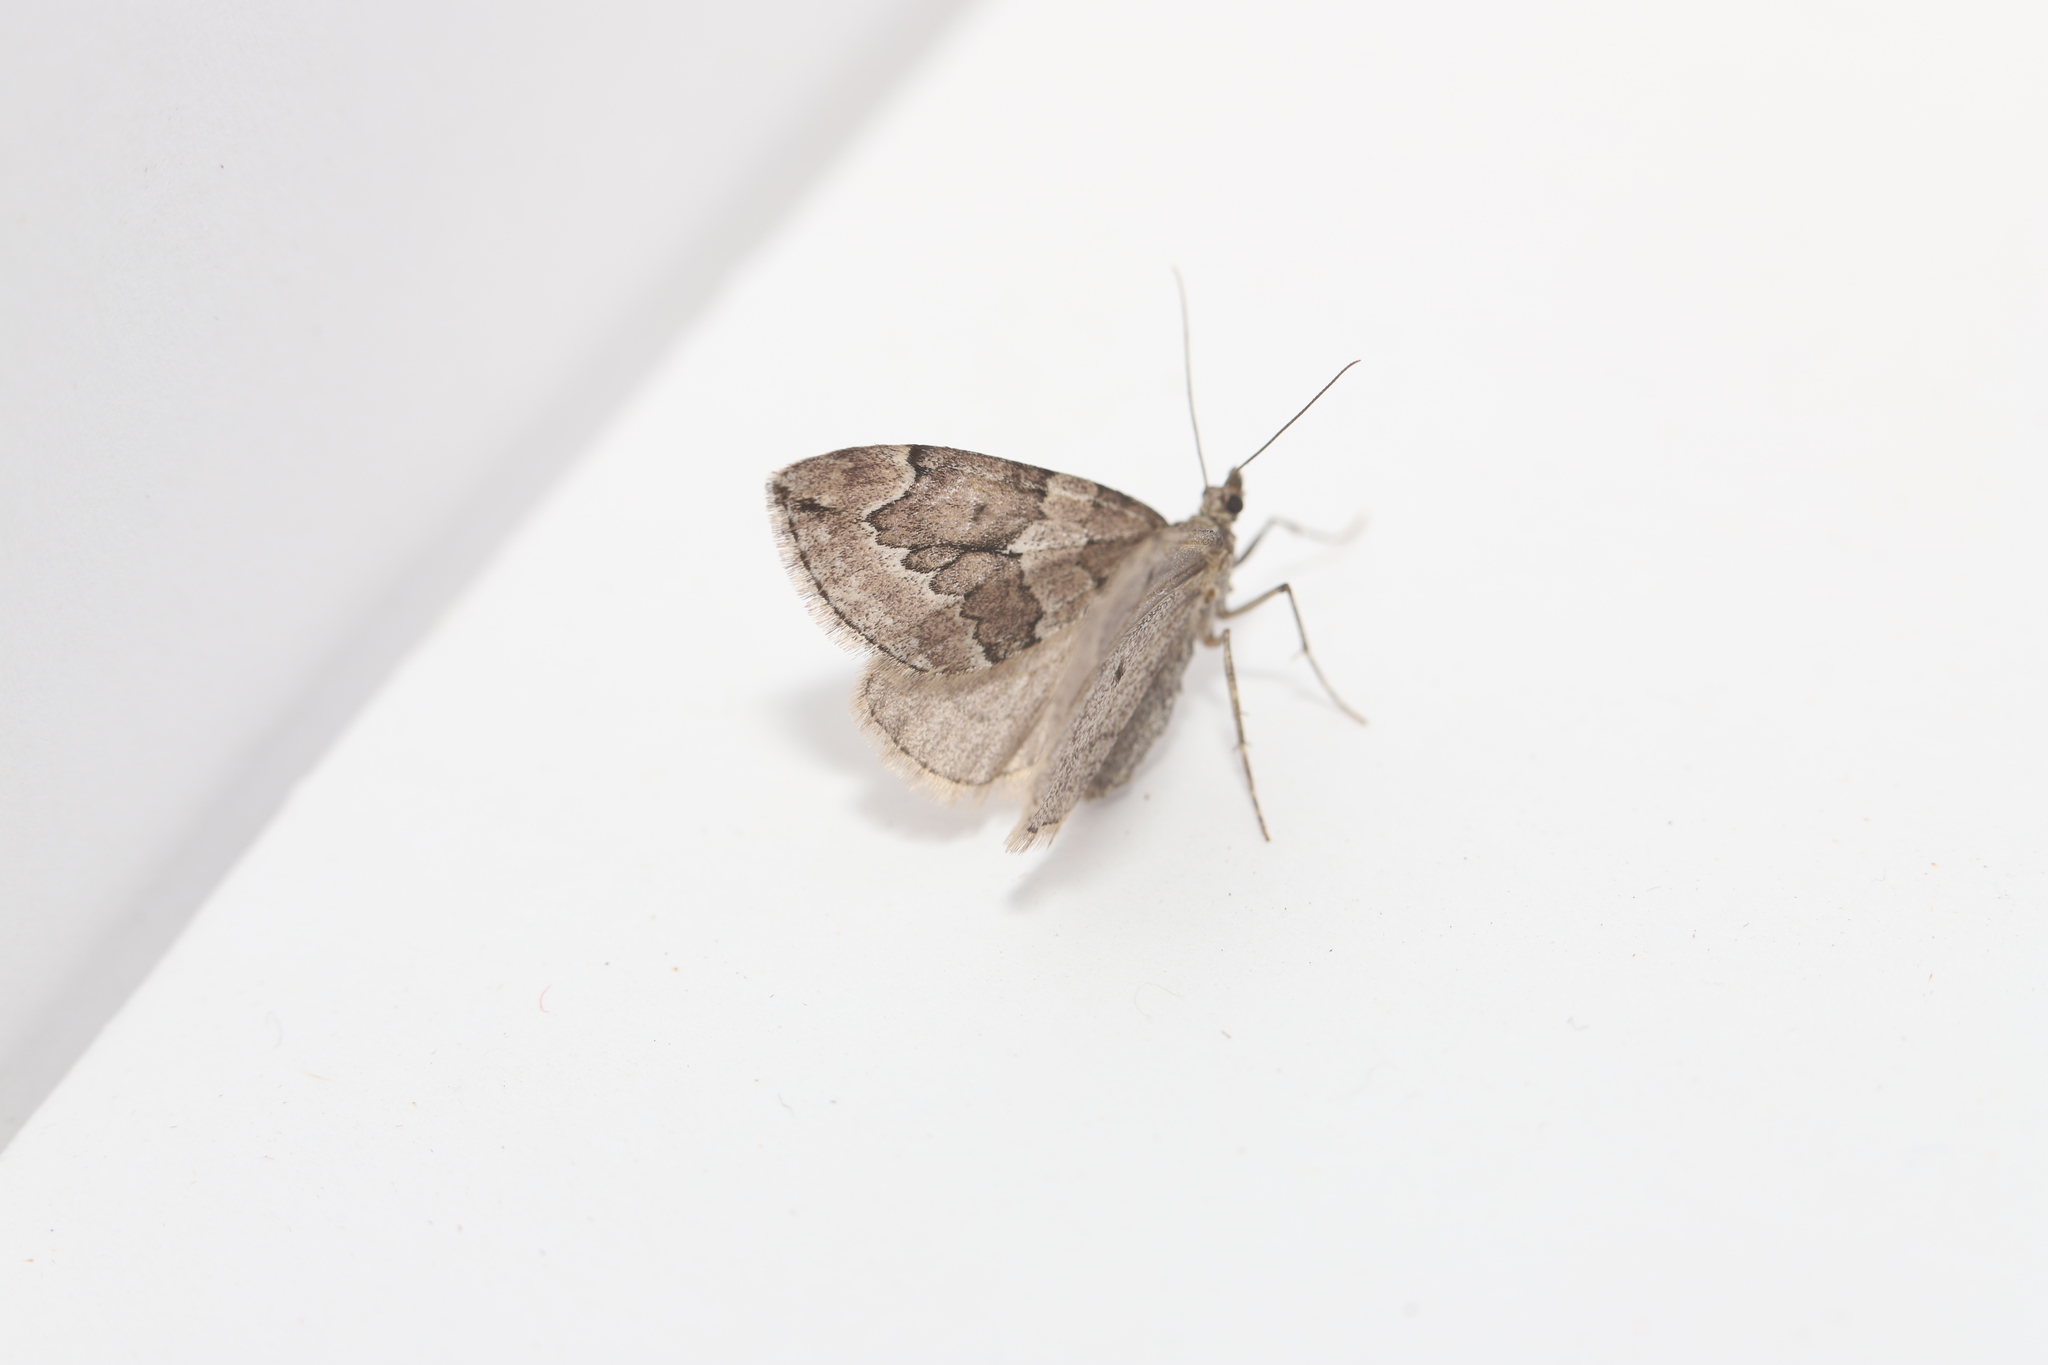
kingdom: Animalia
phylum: Arthropoda
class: Insecta
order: Lepidoptera
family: Geometridae
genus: Thera
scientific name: Thera juniperata
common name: Juniper carpet
